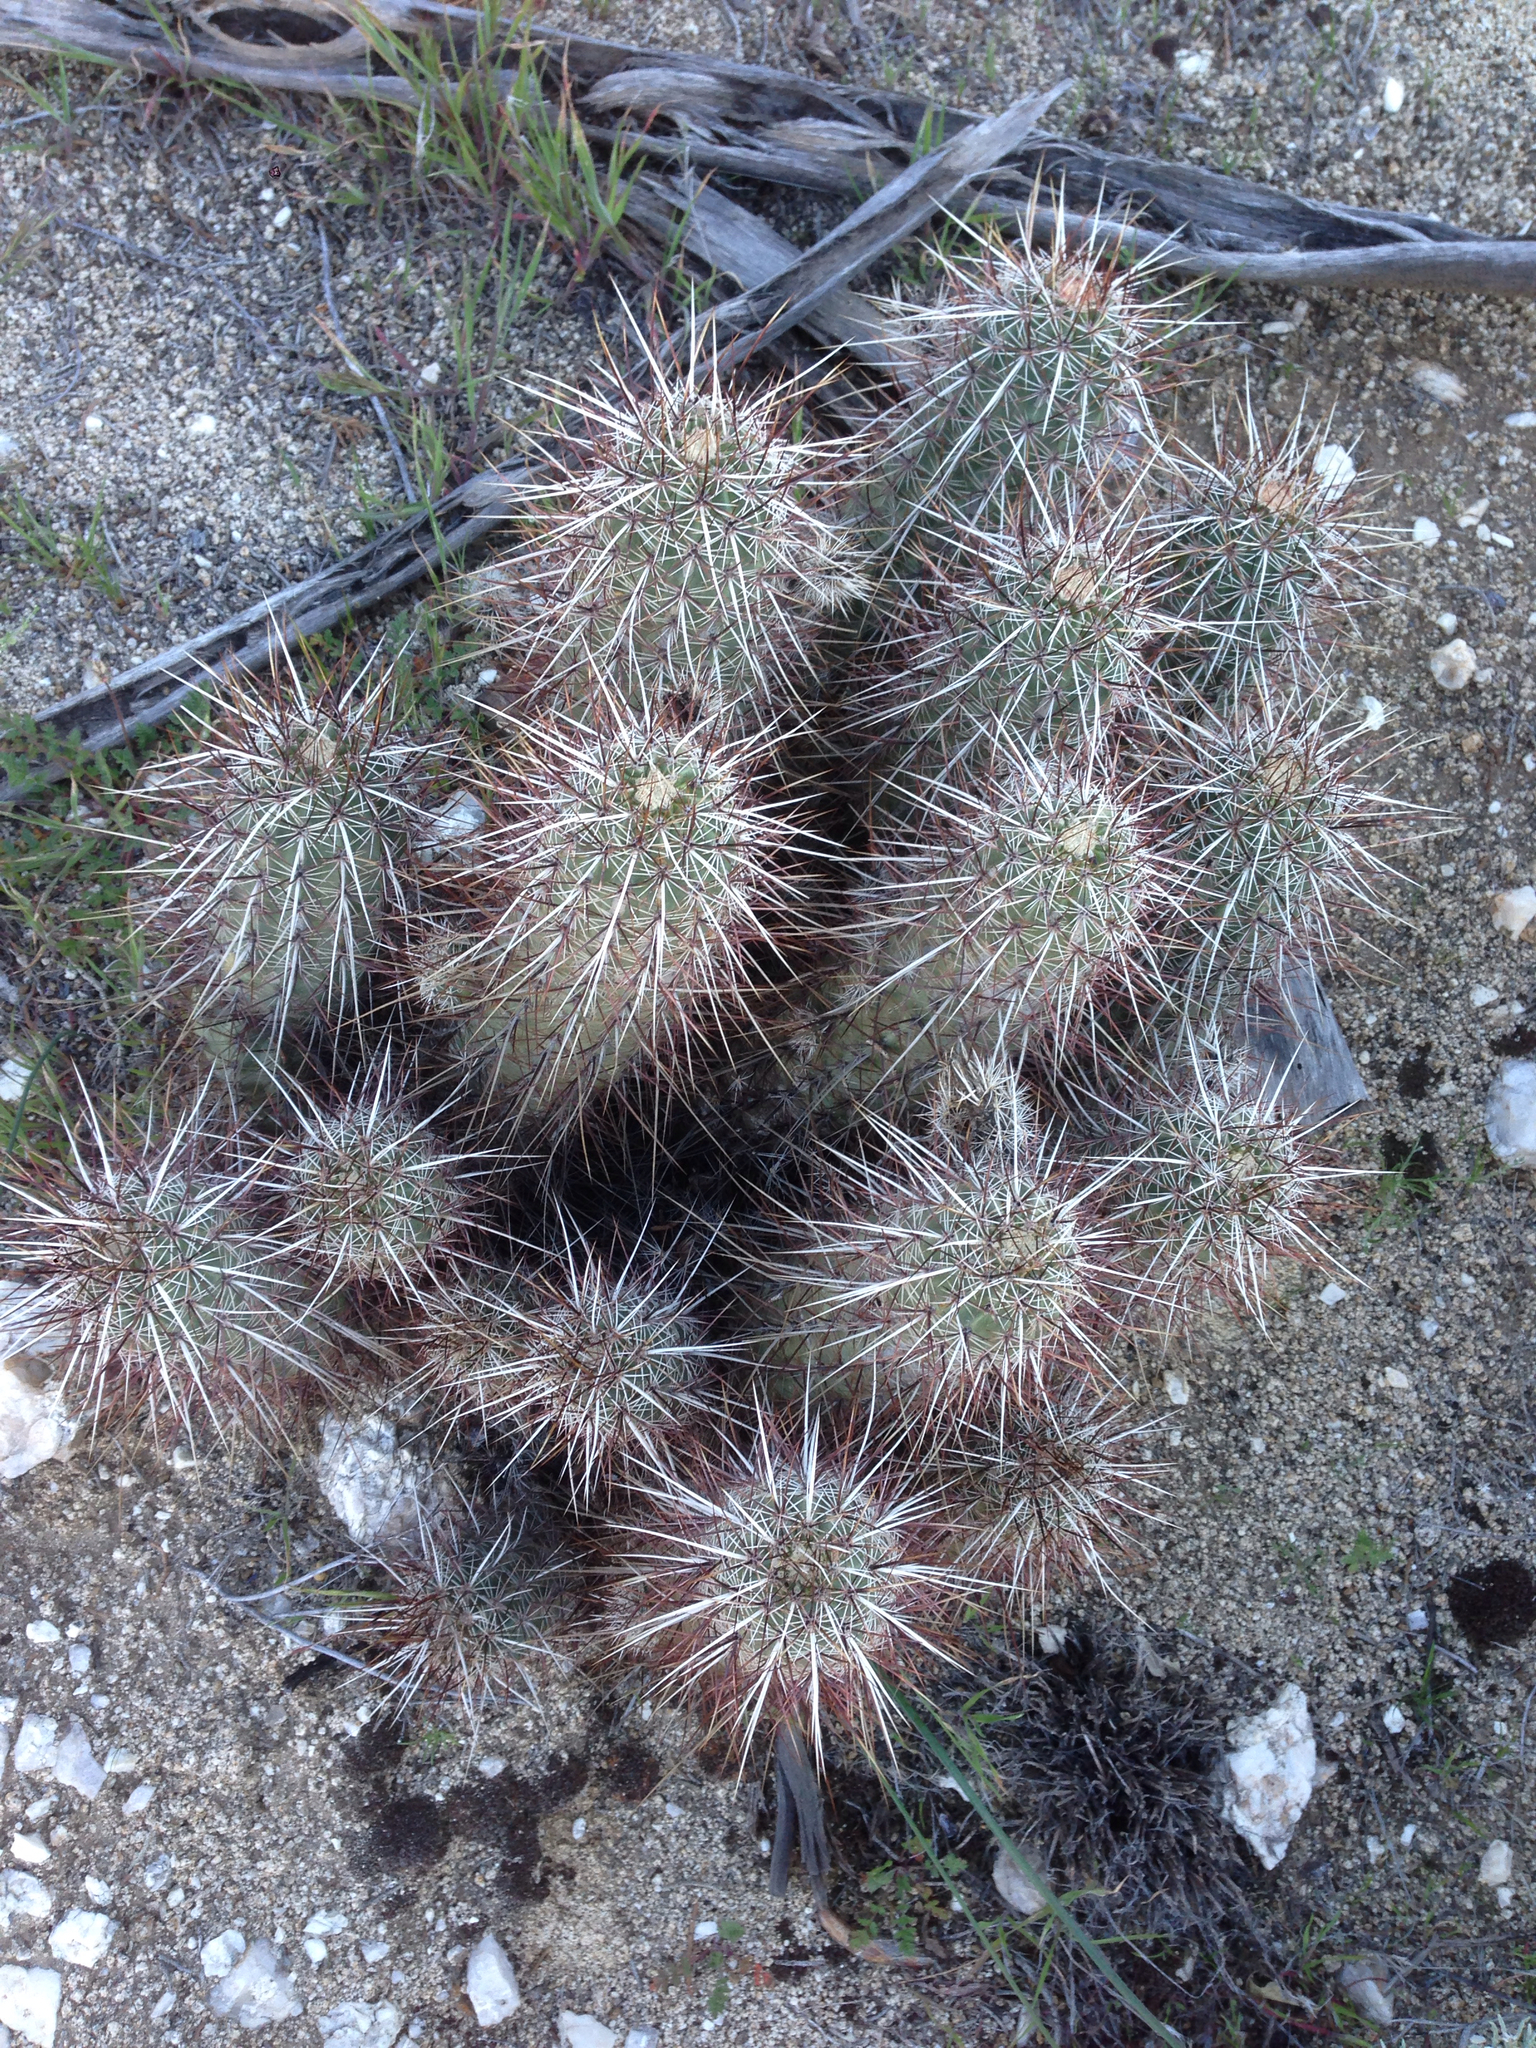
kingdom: Plantae
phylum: Tracheophyta
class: Magnoliopsida
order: Caryophyllales
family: Cactaceae
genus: Echinocereus
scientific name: Echinocereus engelmannii
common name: Engelmann's hedgehog cactus
